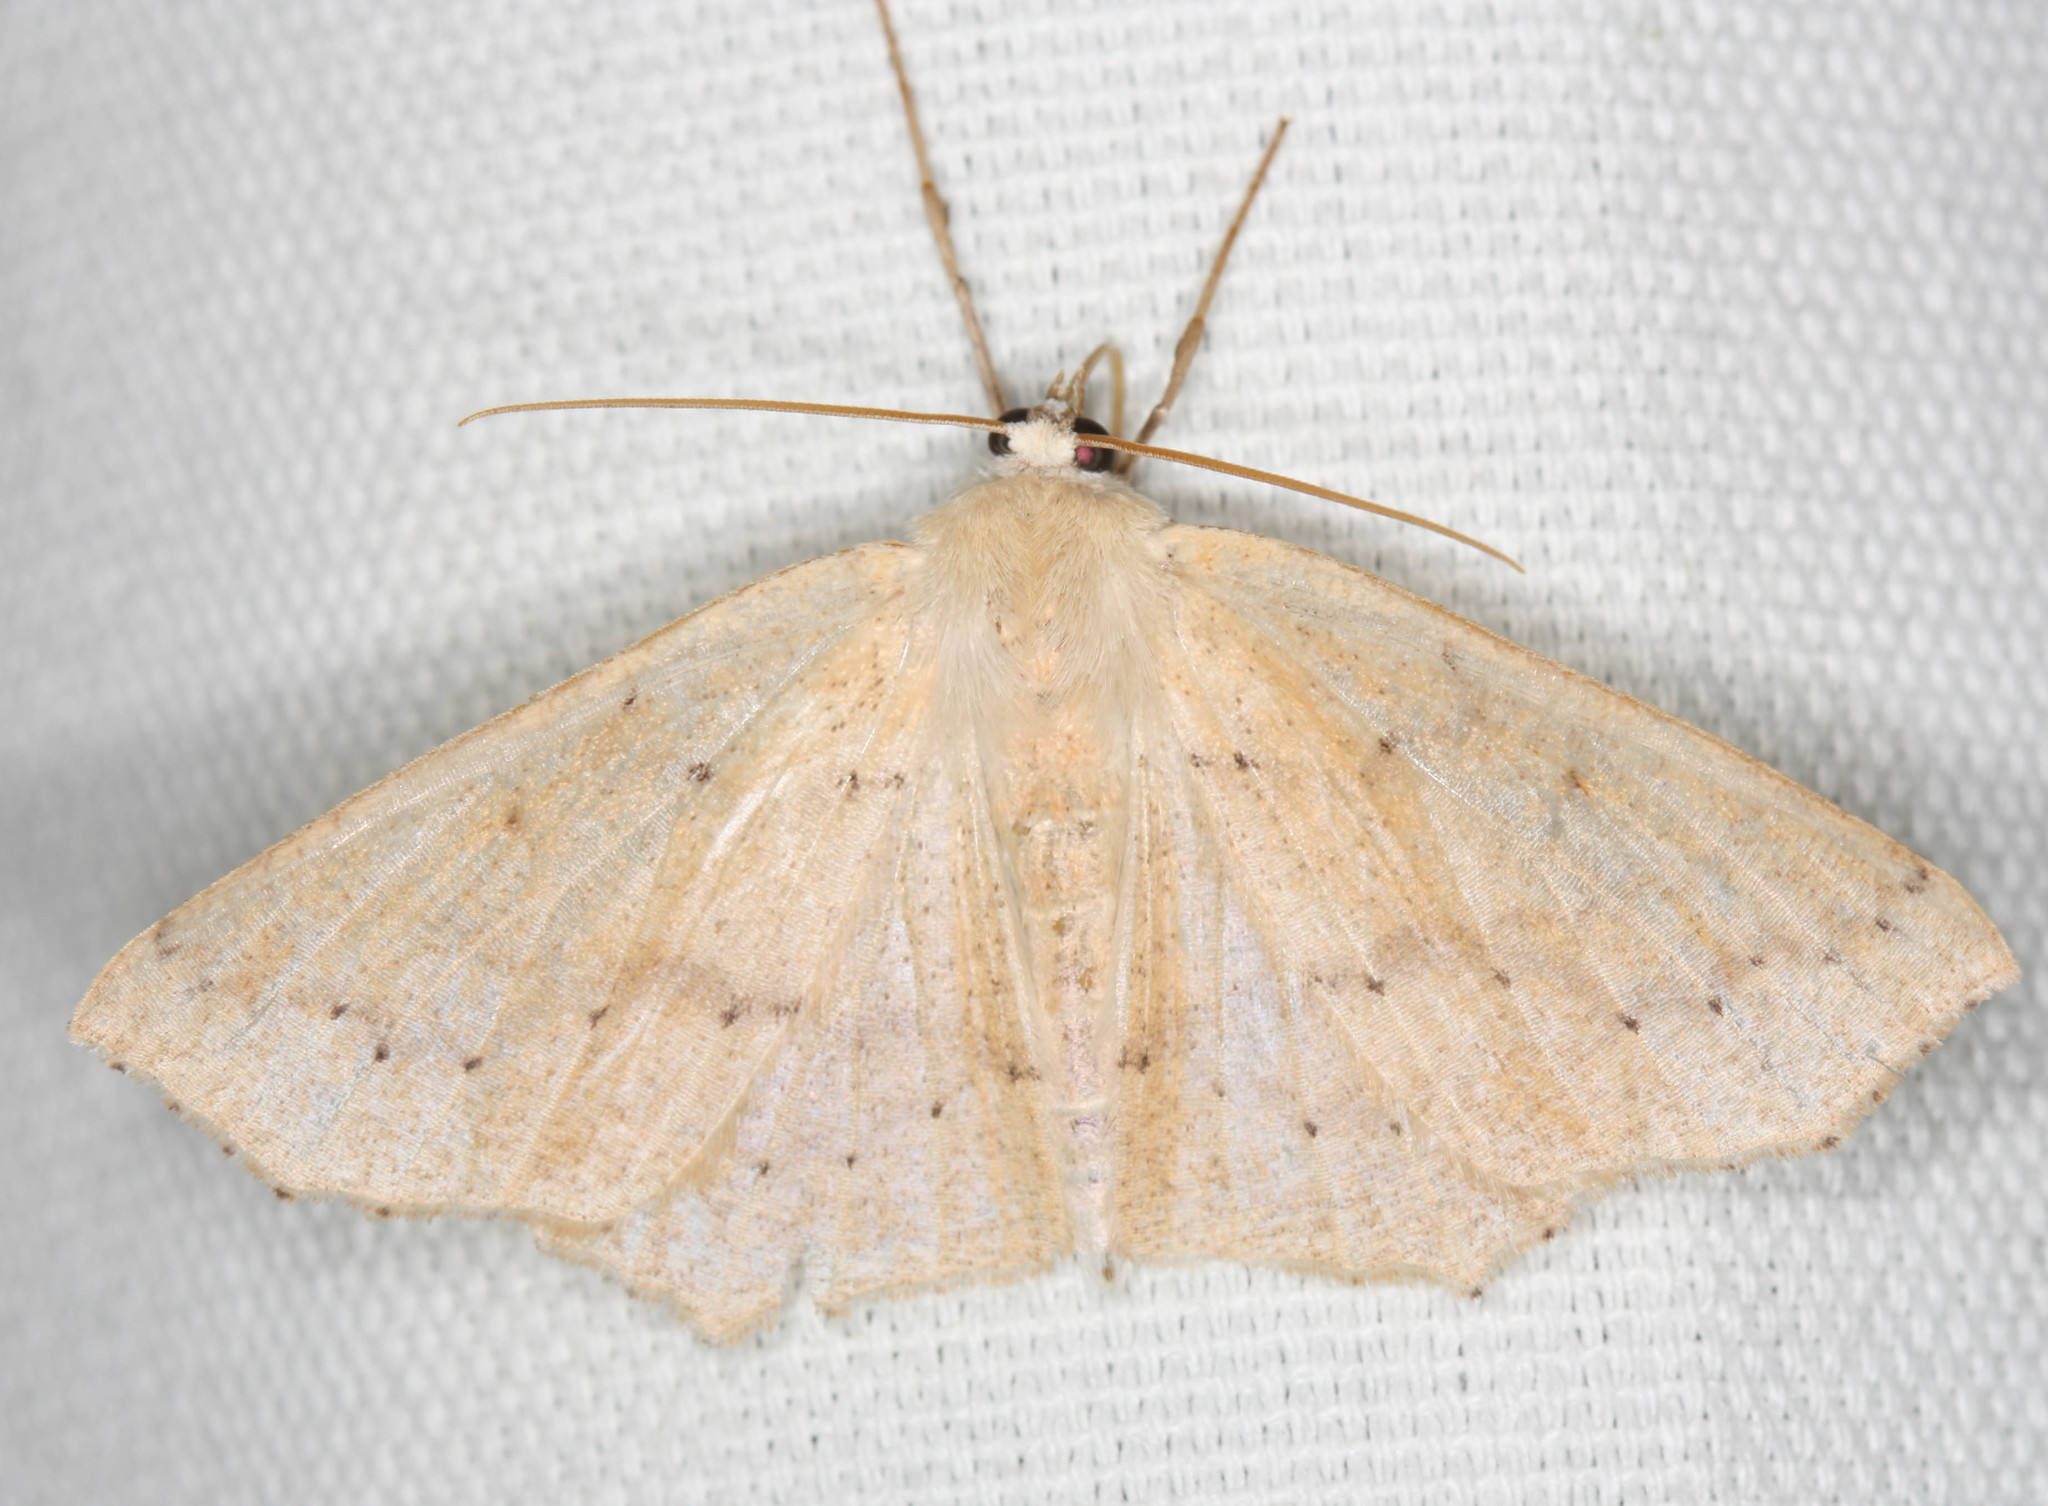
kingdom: Animalia
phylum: Arthropoda
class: Insecta
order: Lepidoptera
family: Geometridae
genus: Sabulodes
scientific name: Sabulodes aegrotata
